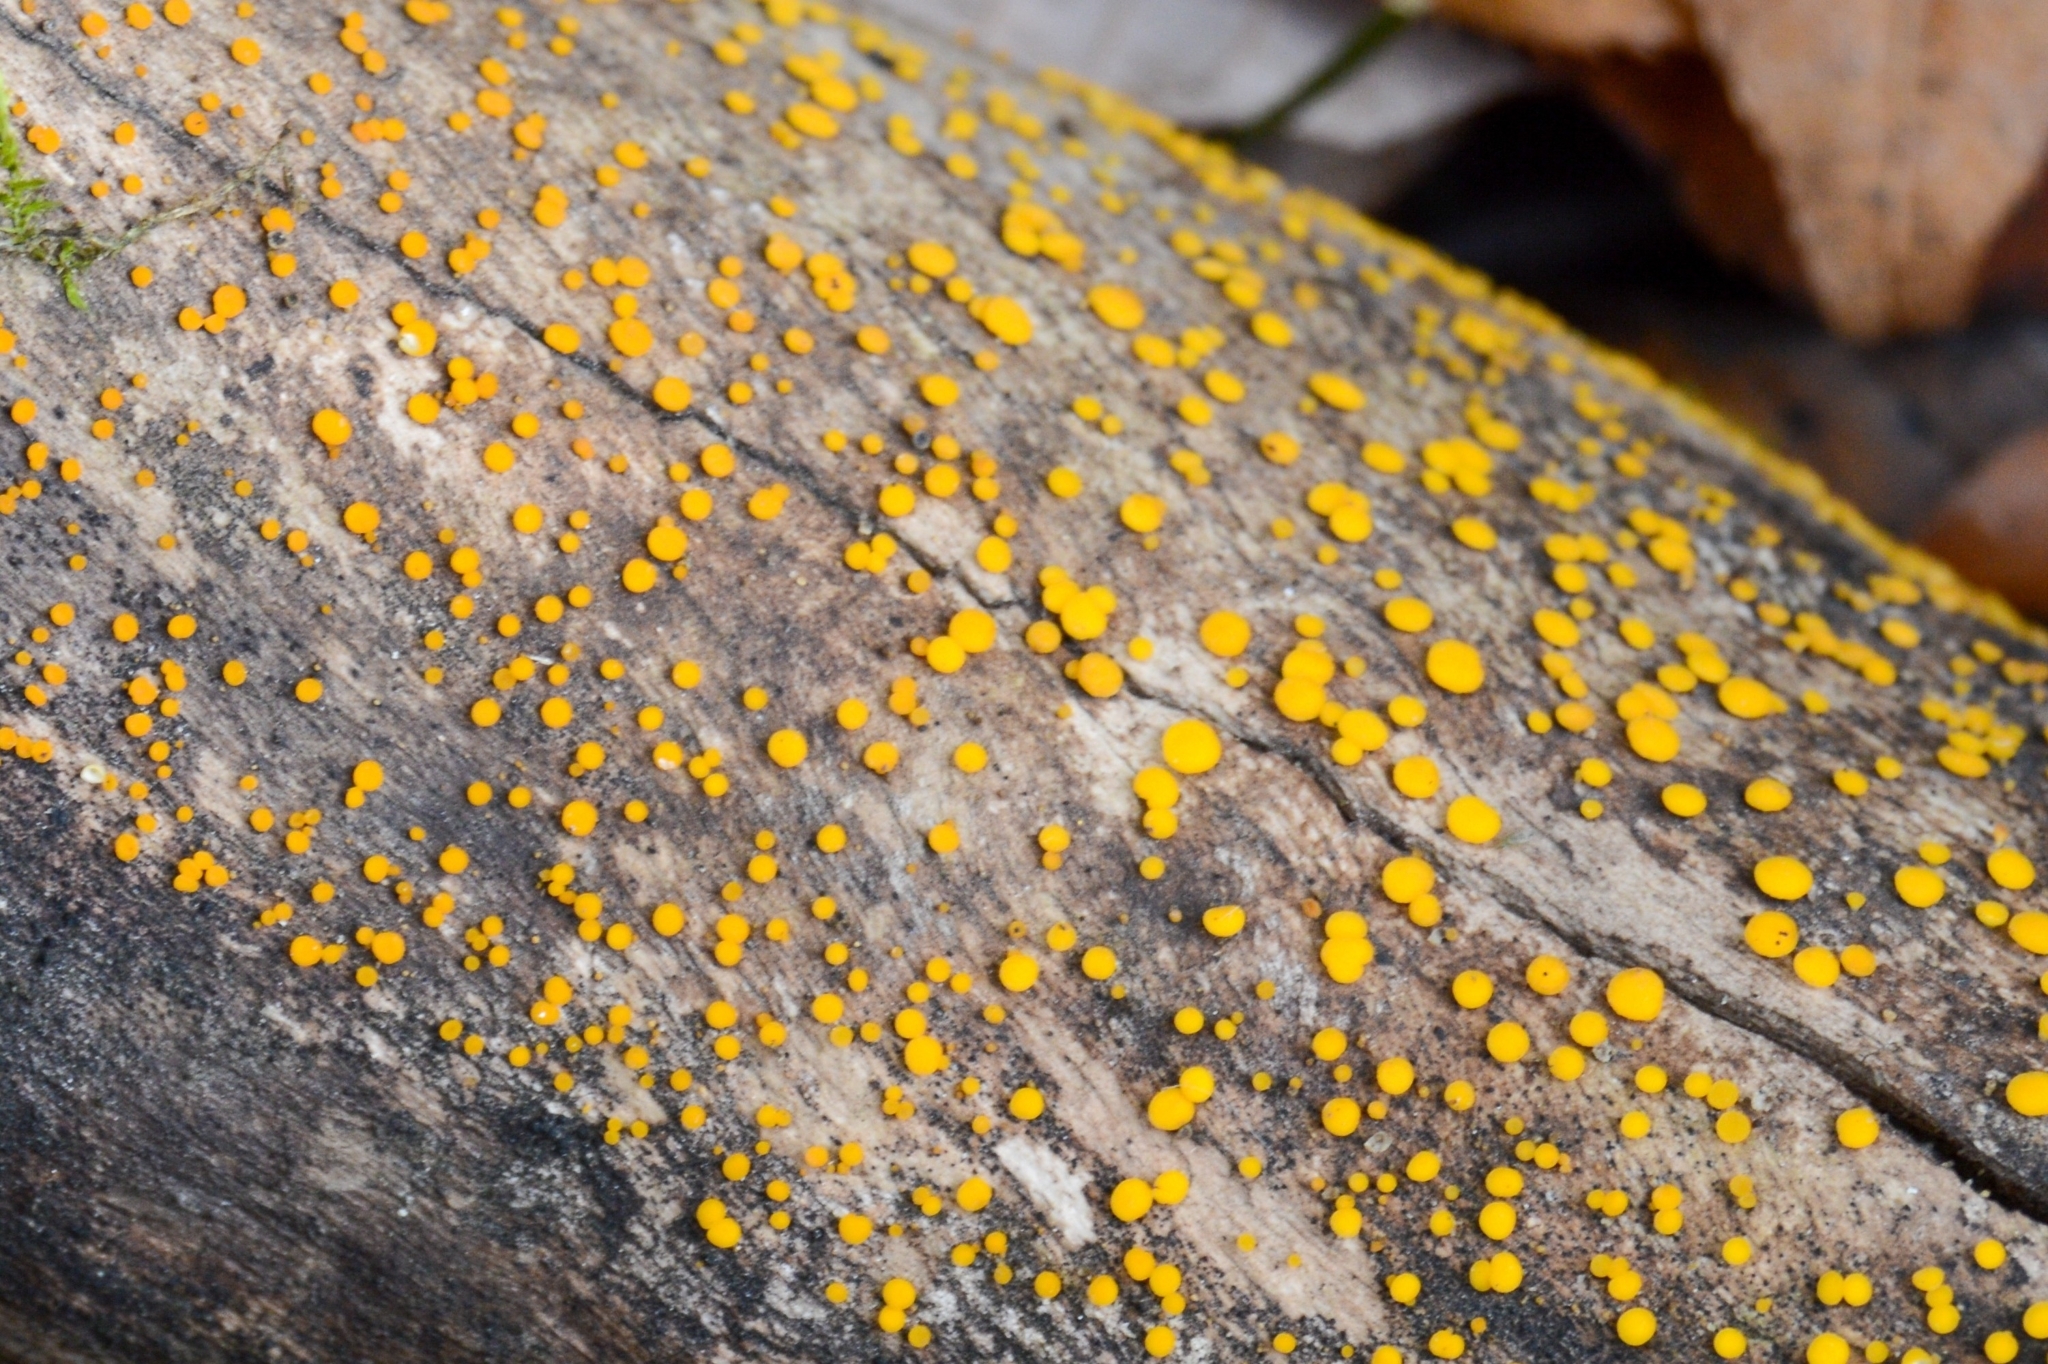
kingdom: Fungi
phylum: Ascomycota
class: Leotiomycetes
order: Helotiales
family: Pezizellaceae
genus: Calycina
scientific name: Calycina citrina
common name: Yellow fairy cups
